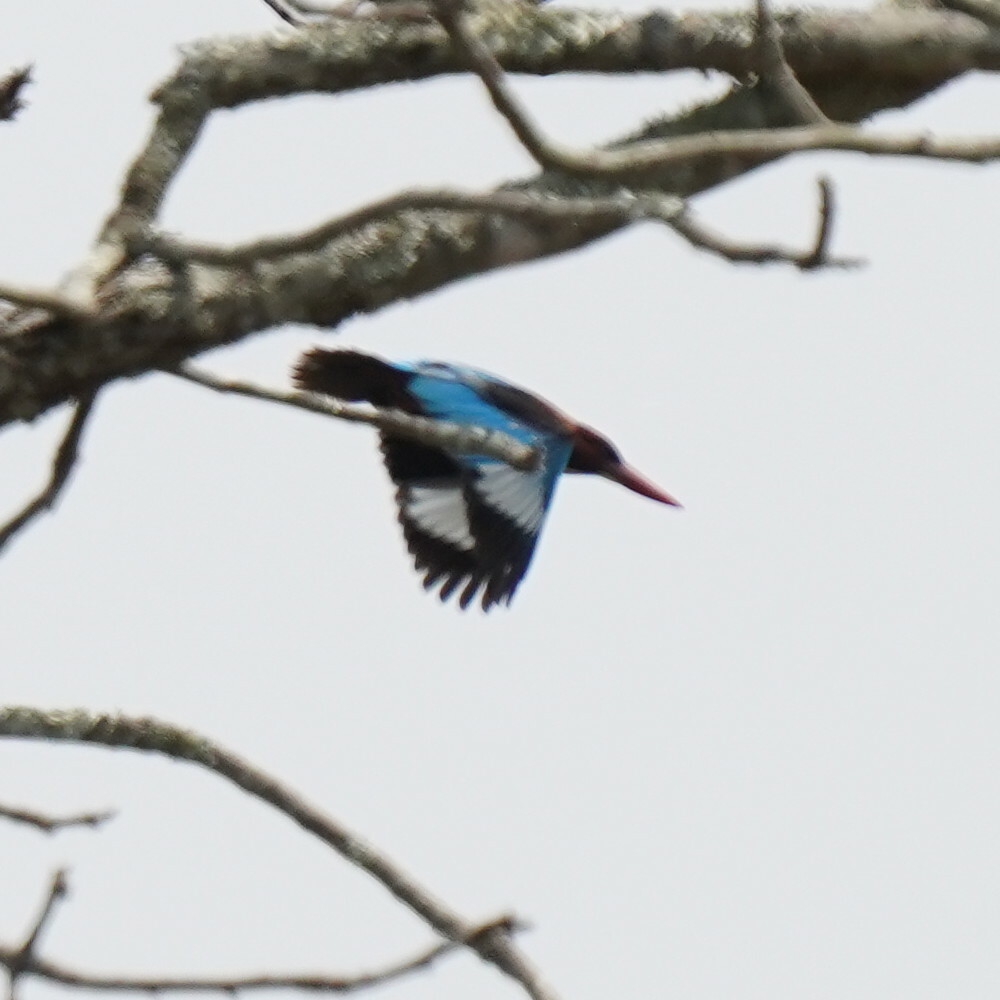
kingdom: Animalia
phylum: Chordata
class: Aves
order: Coraciiformes
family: Alcedinidae
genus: Halcyon
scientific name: Halcyon smyrnensis
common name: White-throated kingfisher
